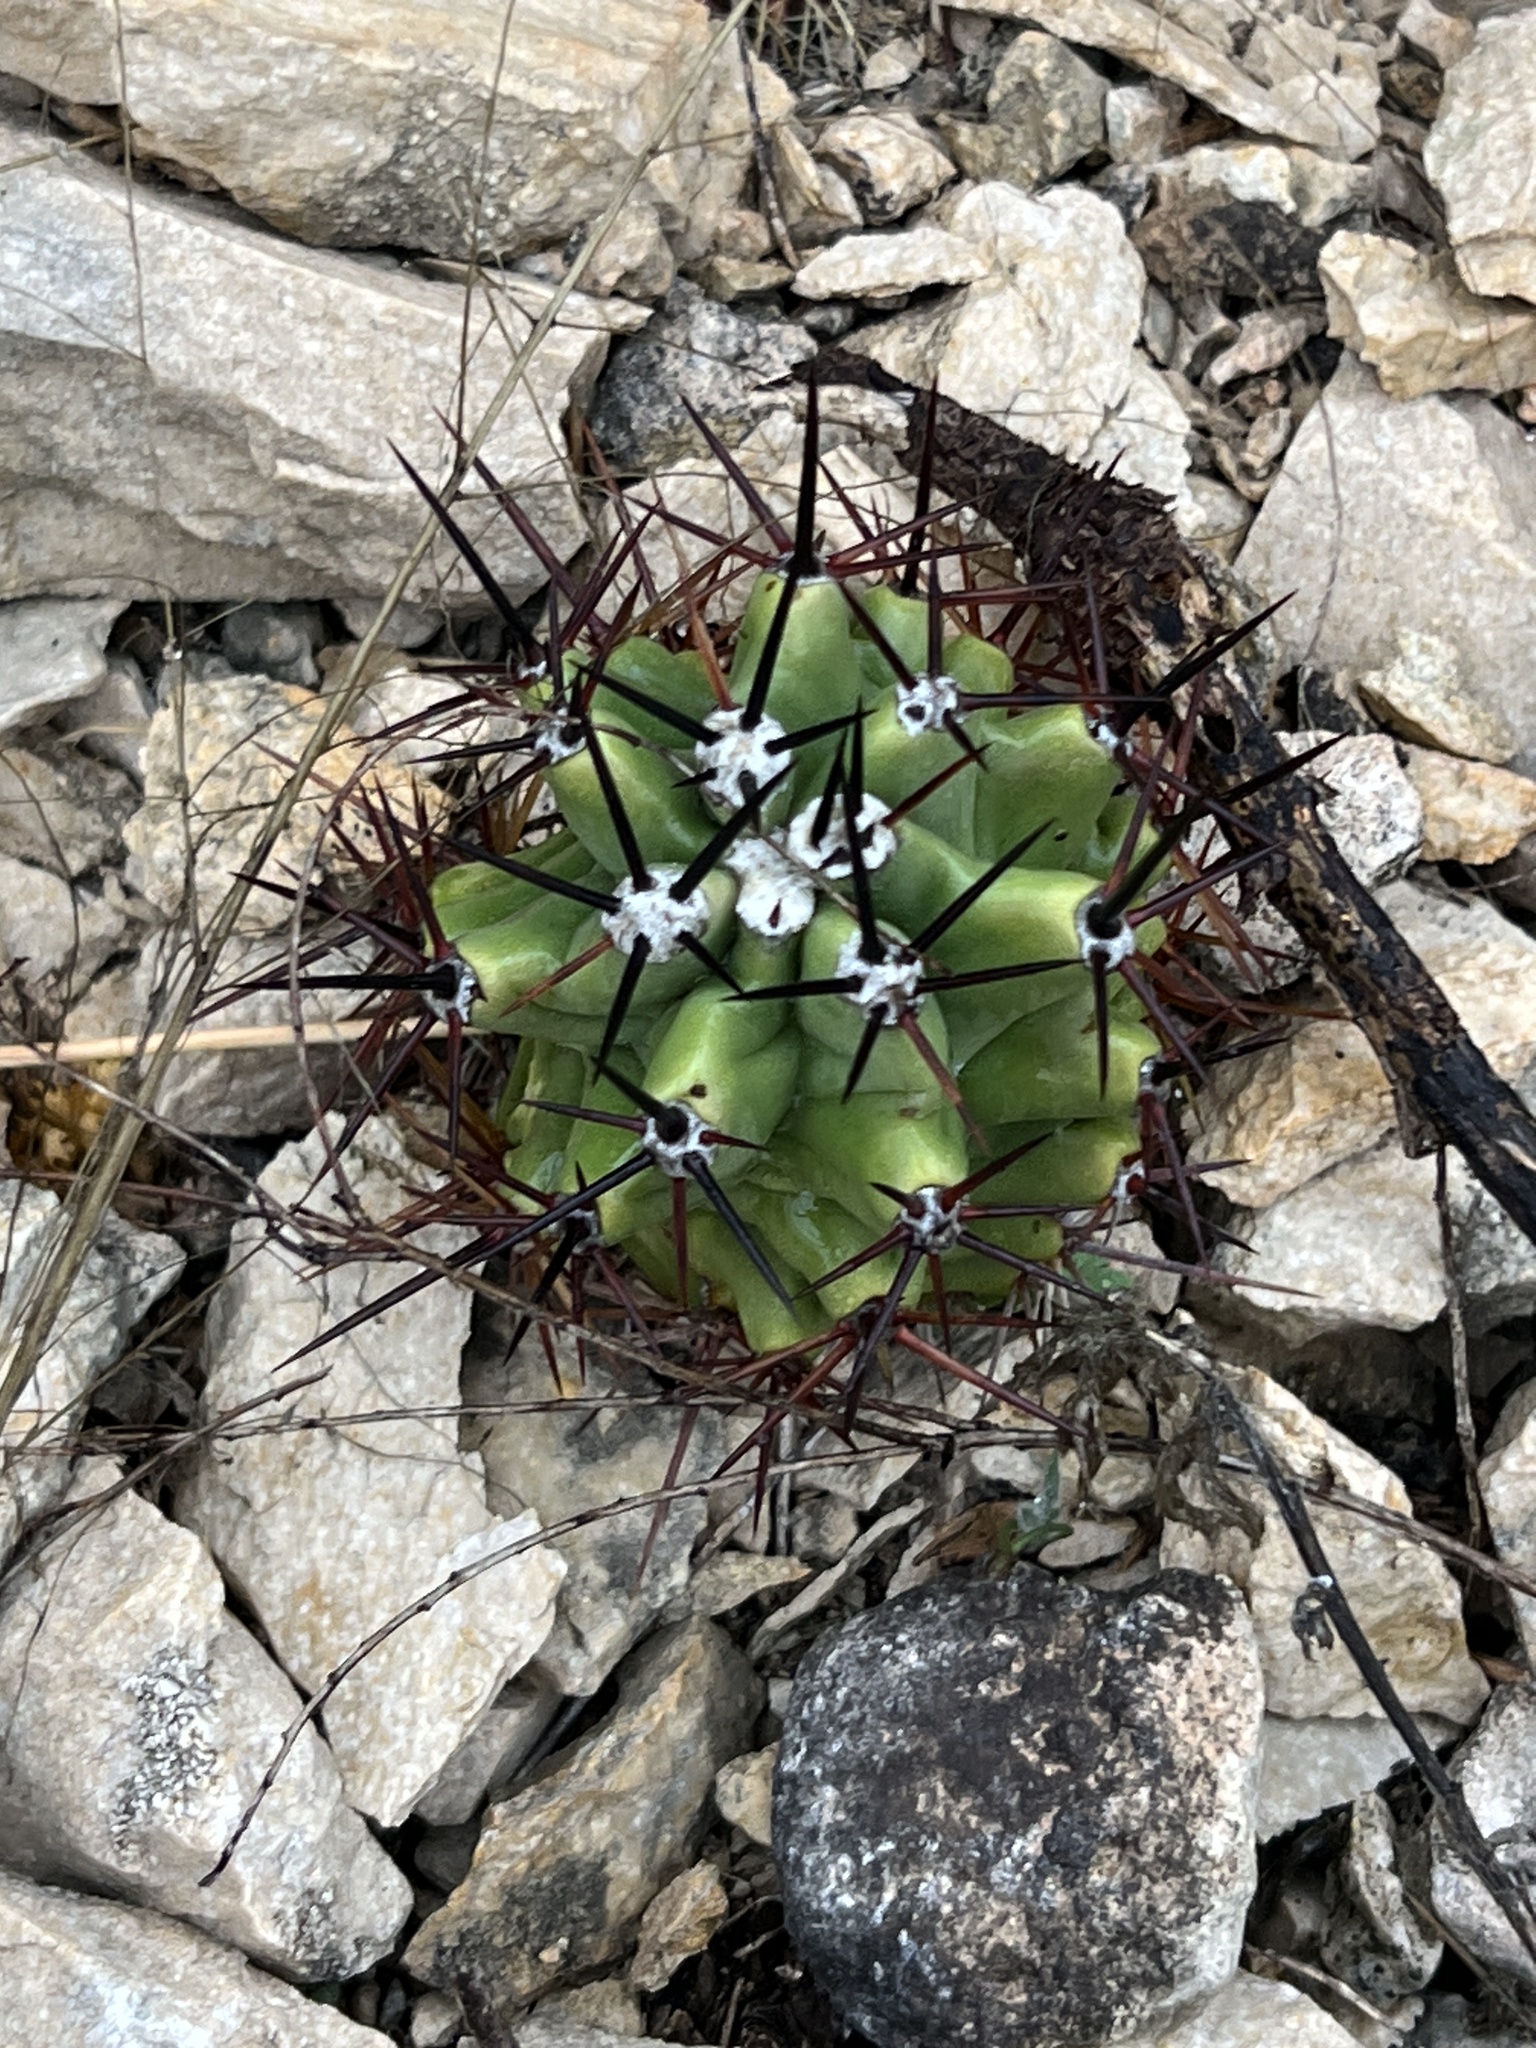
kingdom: Plantae
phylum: Tracheophyta
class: Magnoliopsida
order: Caryophyllales
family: Cactaceae
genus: Echinocereus
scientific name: Echinocereus coccineus
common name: Scarlet hedgehog cactus
